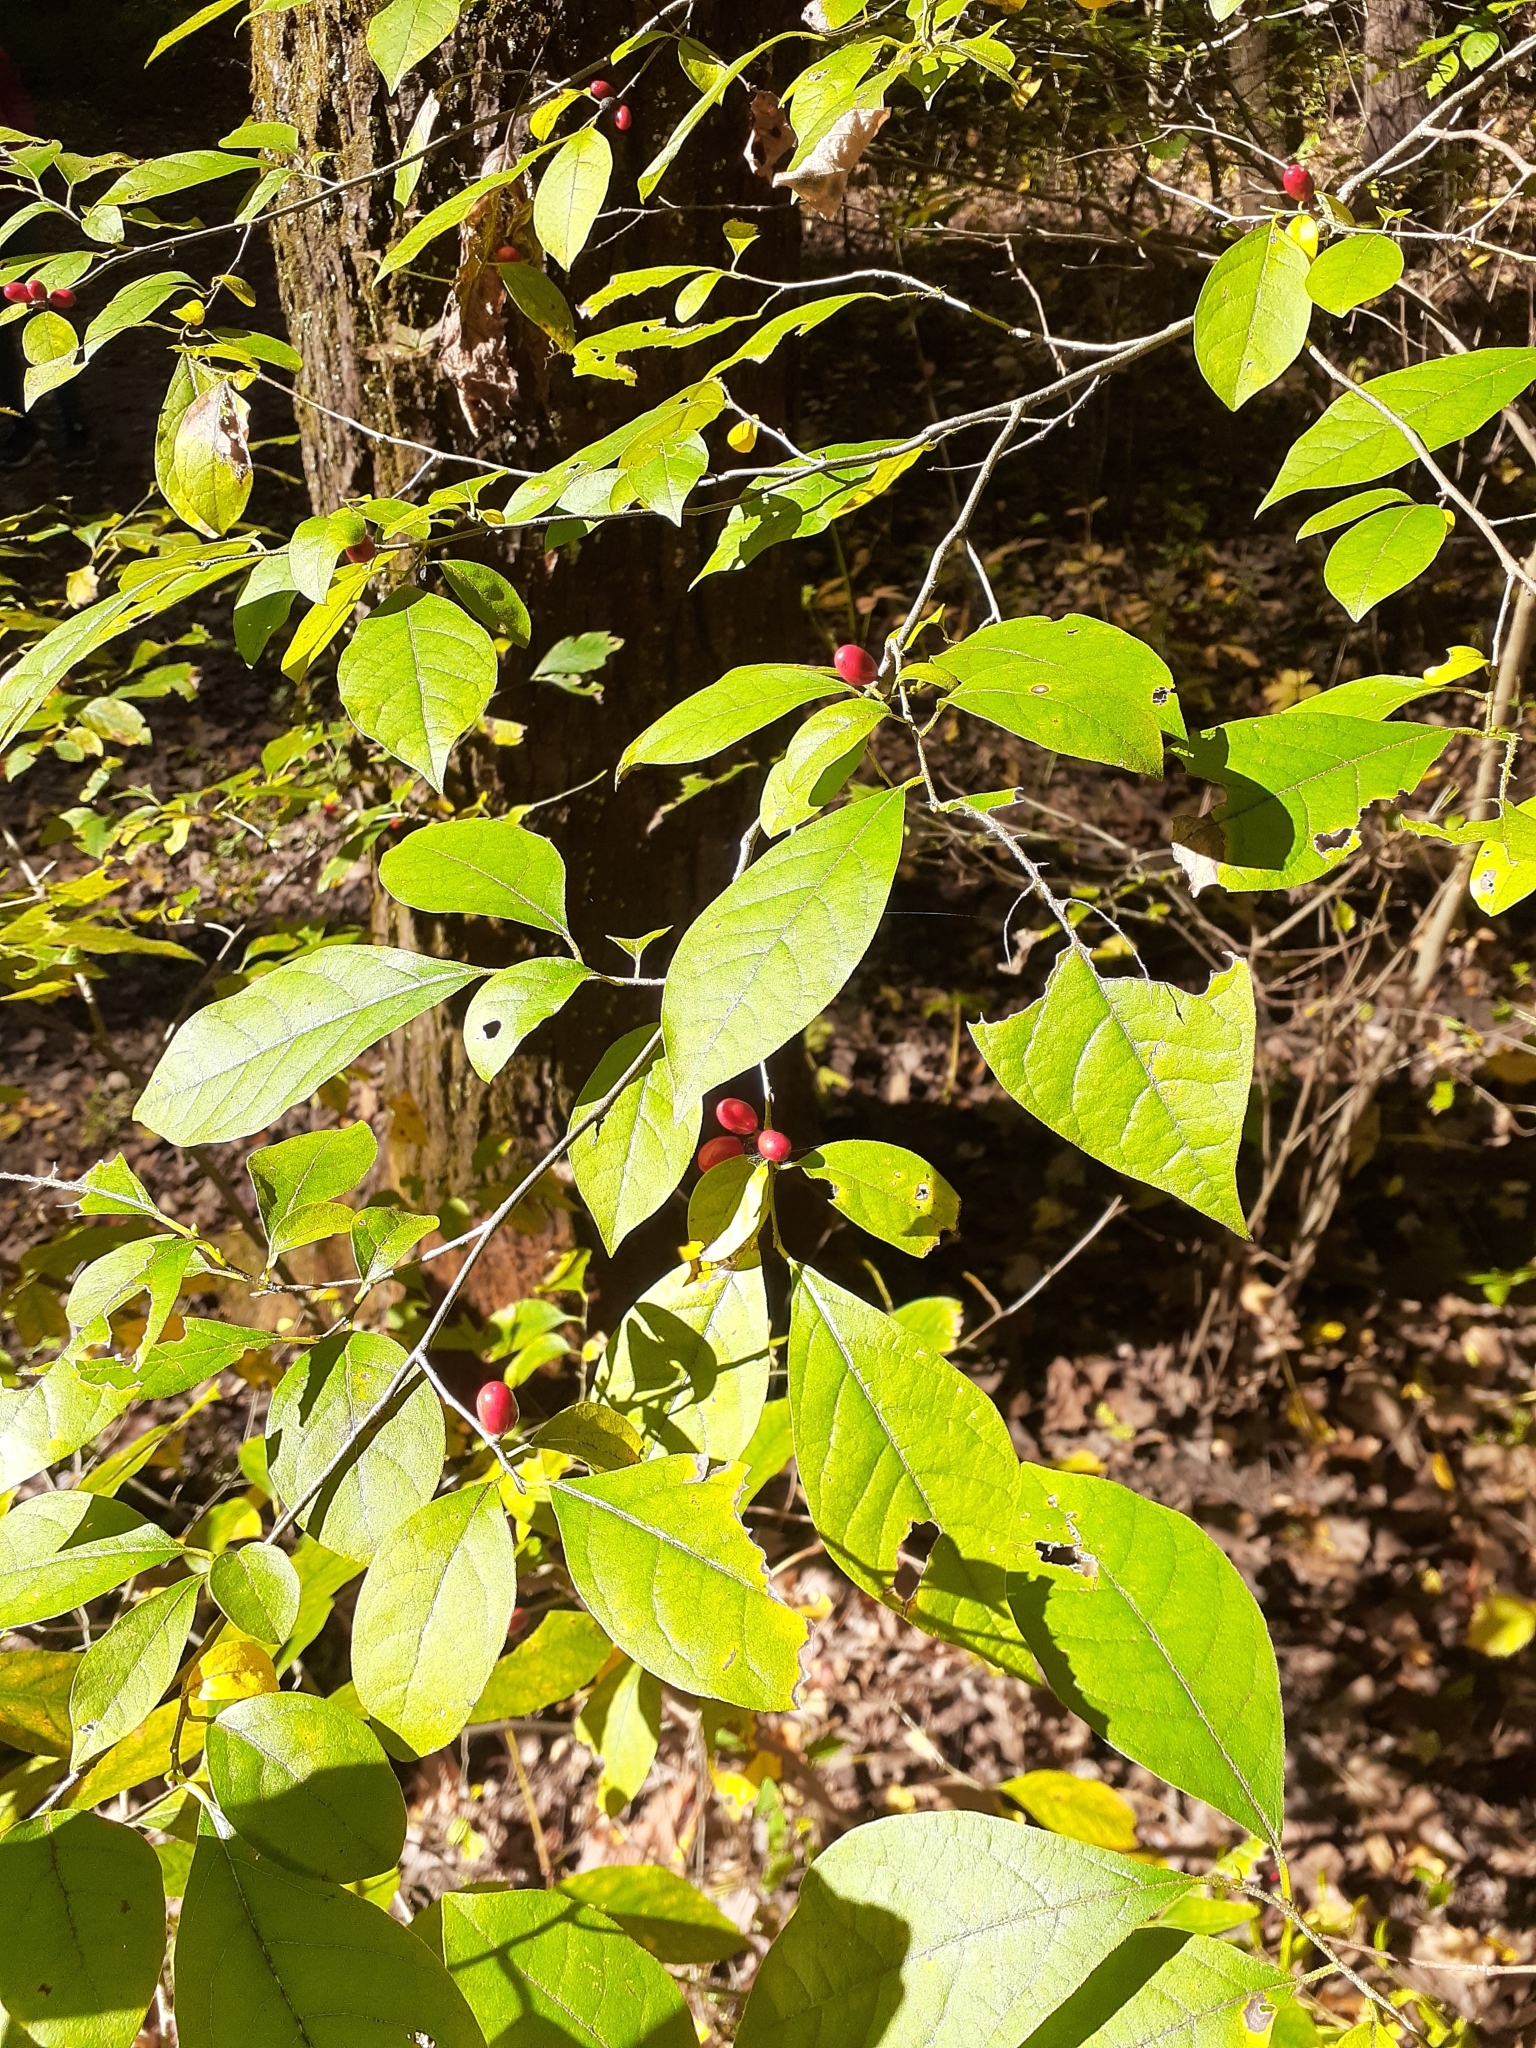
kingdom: Plantae
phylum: Tracheophyta
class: Magnoliopsida
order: Laurales
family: Lauraceae
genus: Lindera
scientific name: Lindera benzoin
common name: Spicebush
